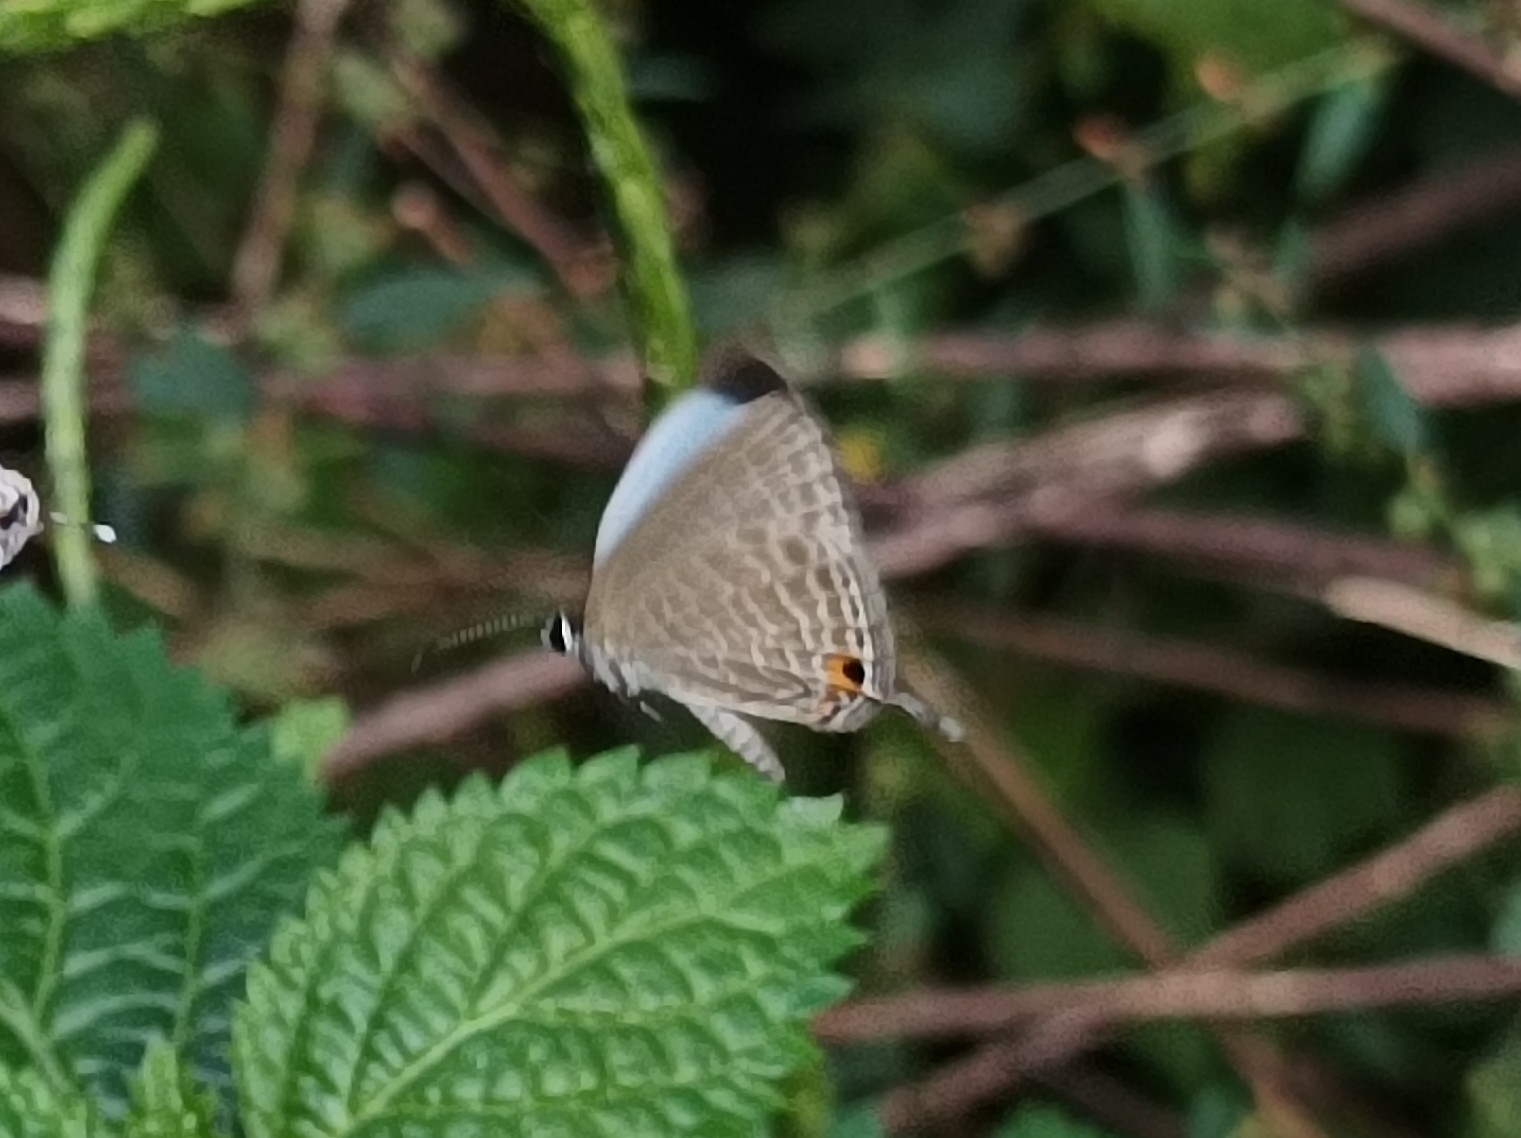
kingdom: Animalia
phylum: Arthropoda
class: Insecta
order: Lepidoptera
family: Lycaenidae
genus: Jamides
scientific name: Jamides celeno
